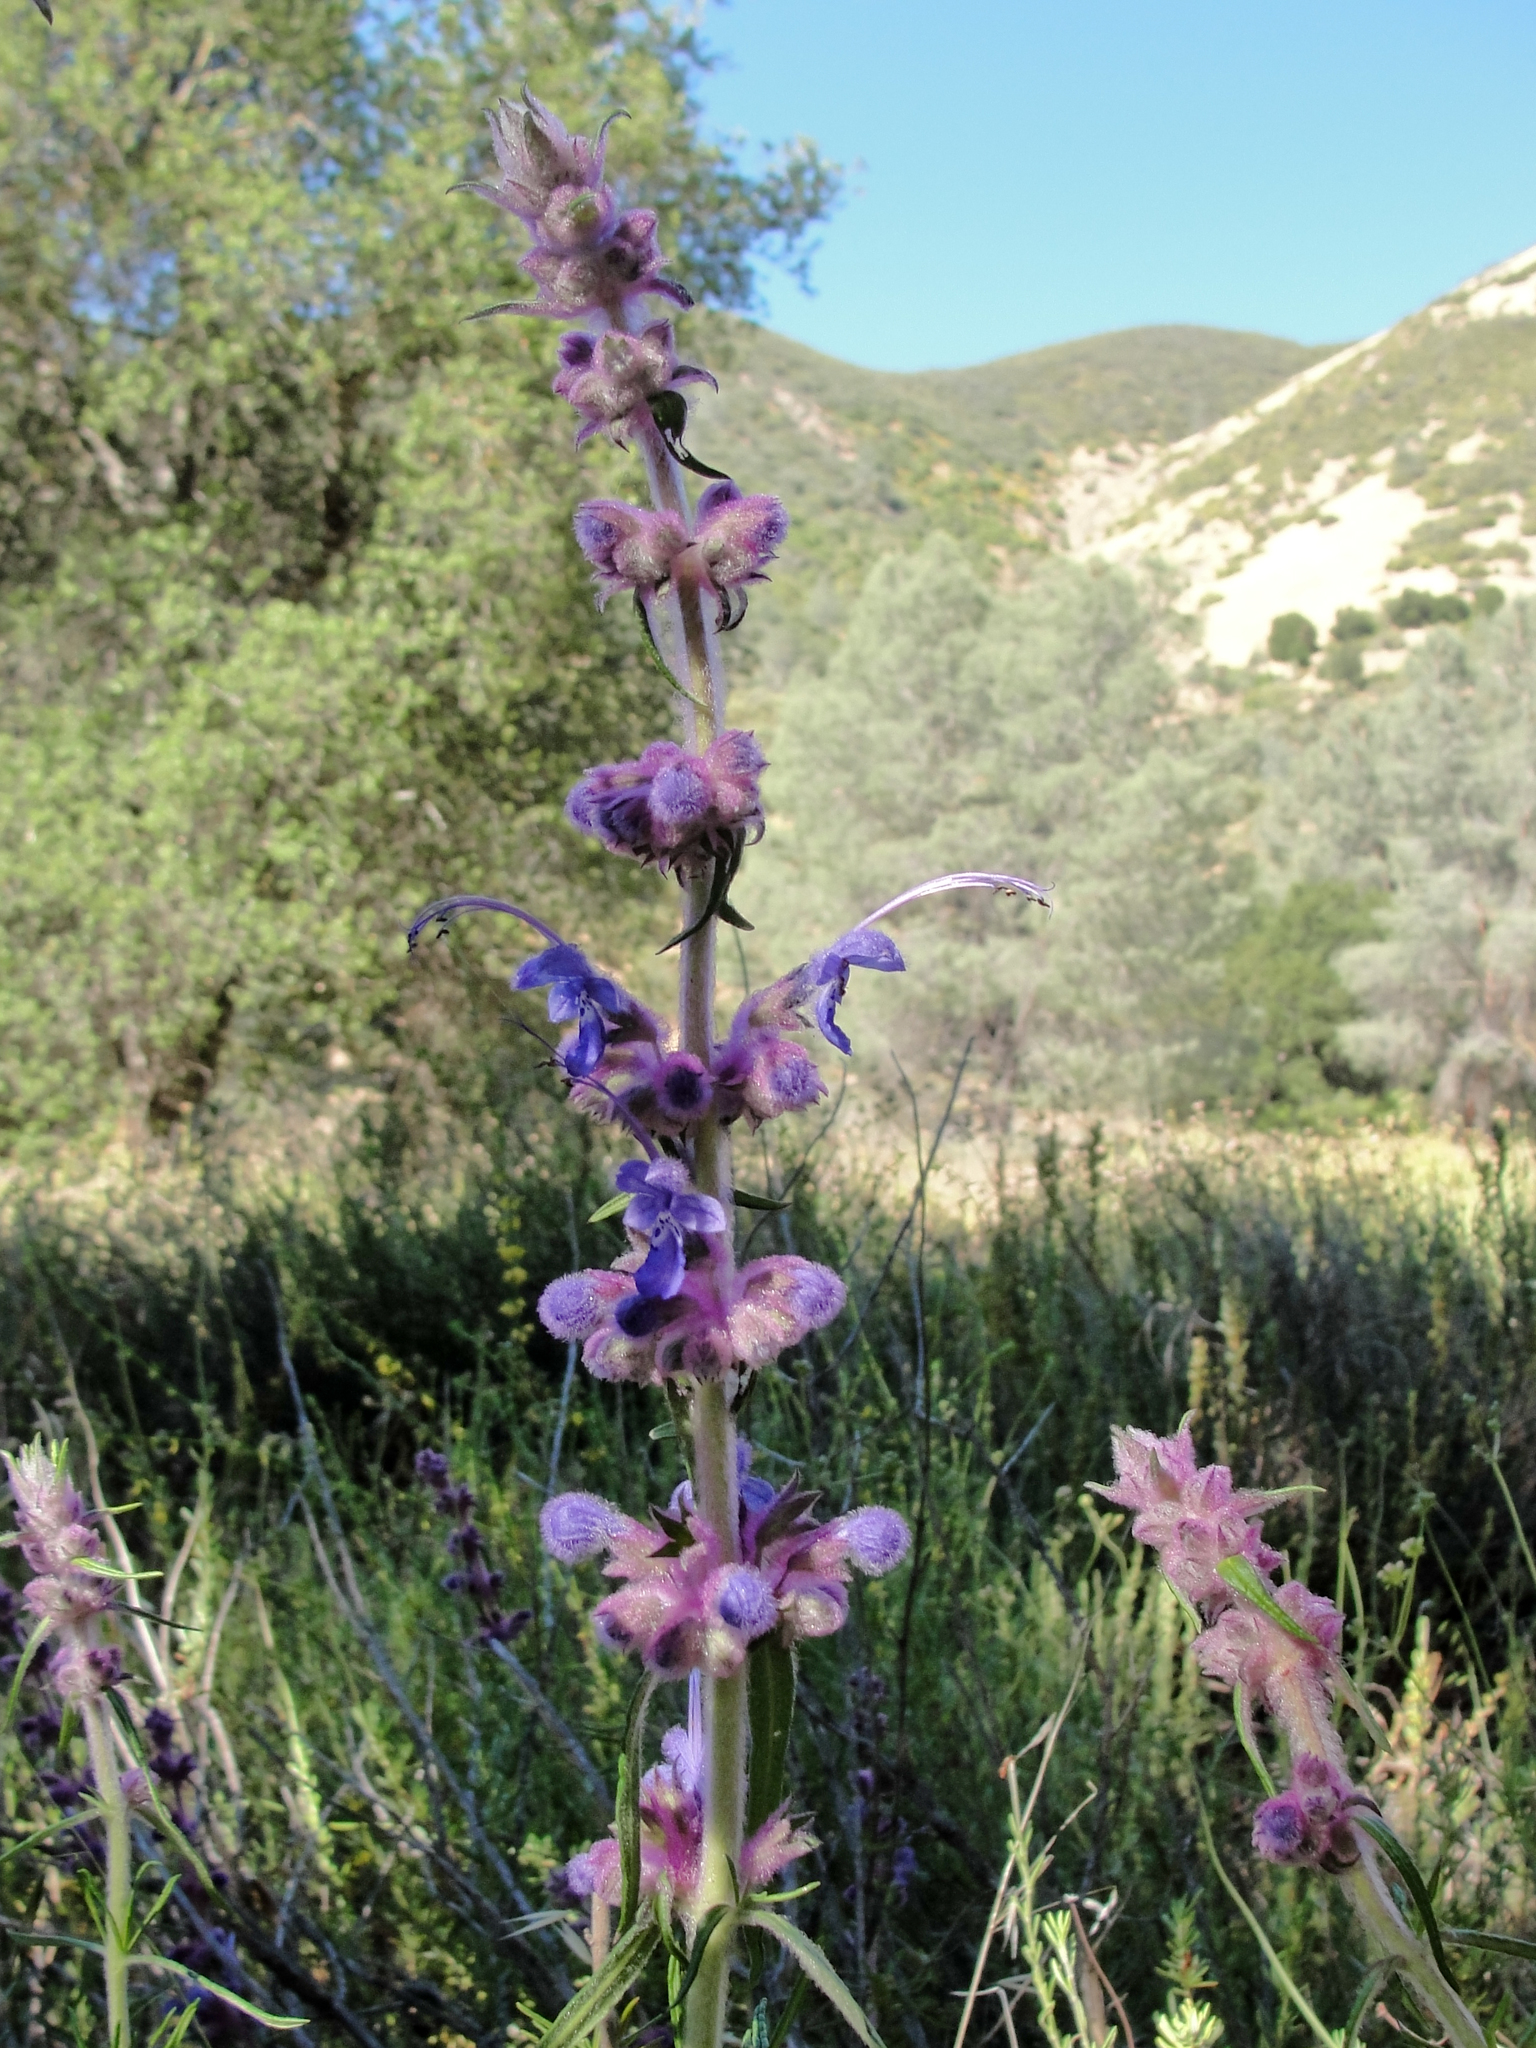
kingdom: Plantae
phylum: Tracheophyta
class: Magnoliopsida
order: Lamiales
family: Lamiaceae
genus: Trichostema
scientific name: Trichostema lanatum
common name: Woolly bluecurls
